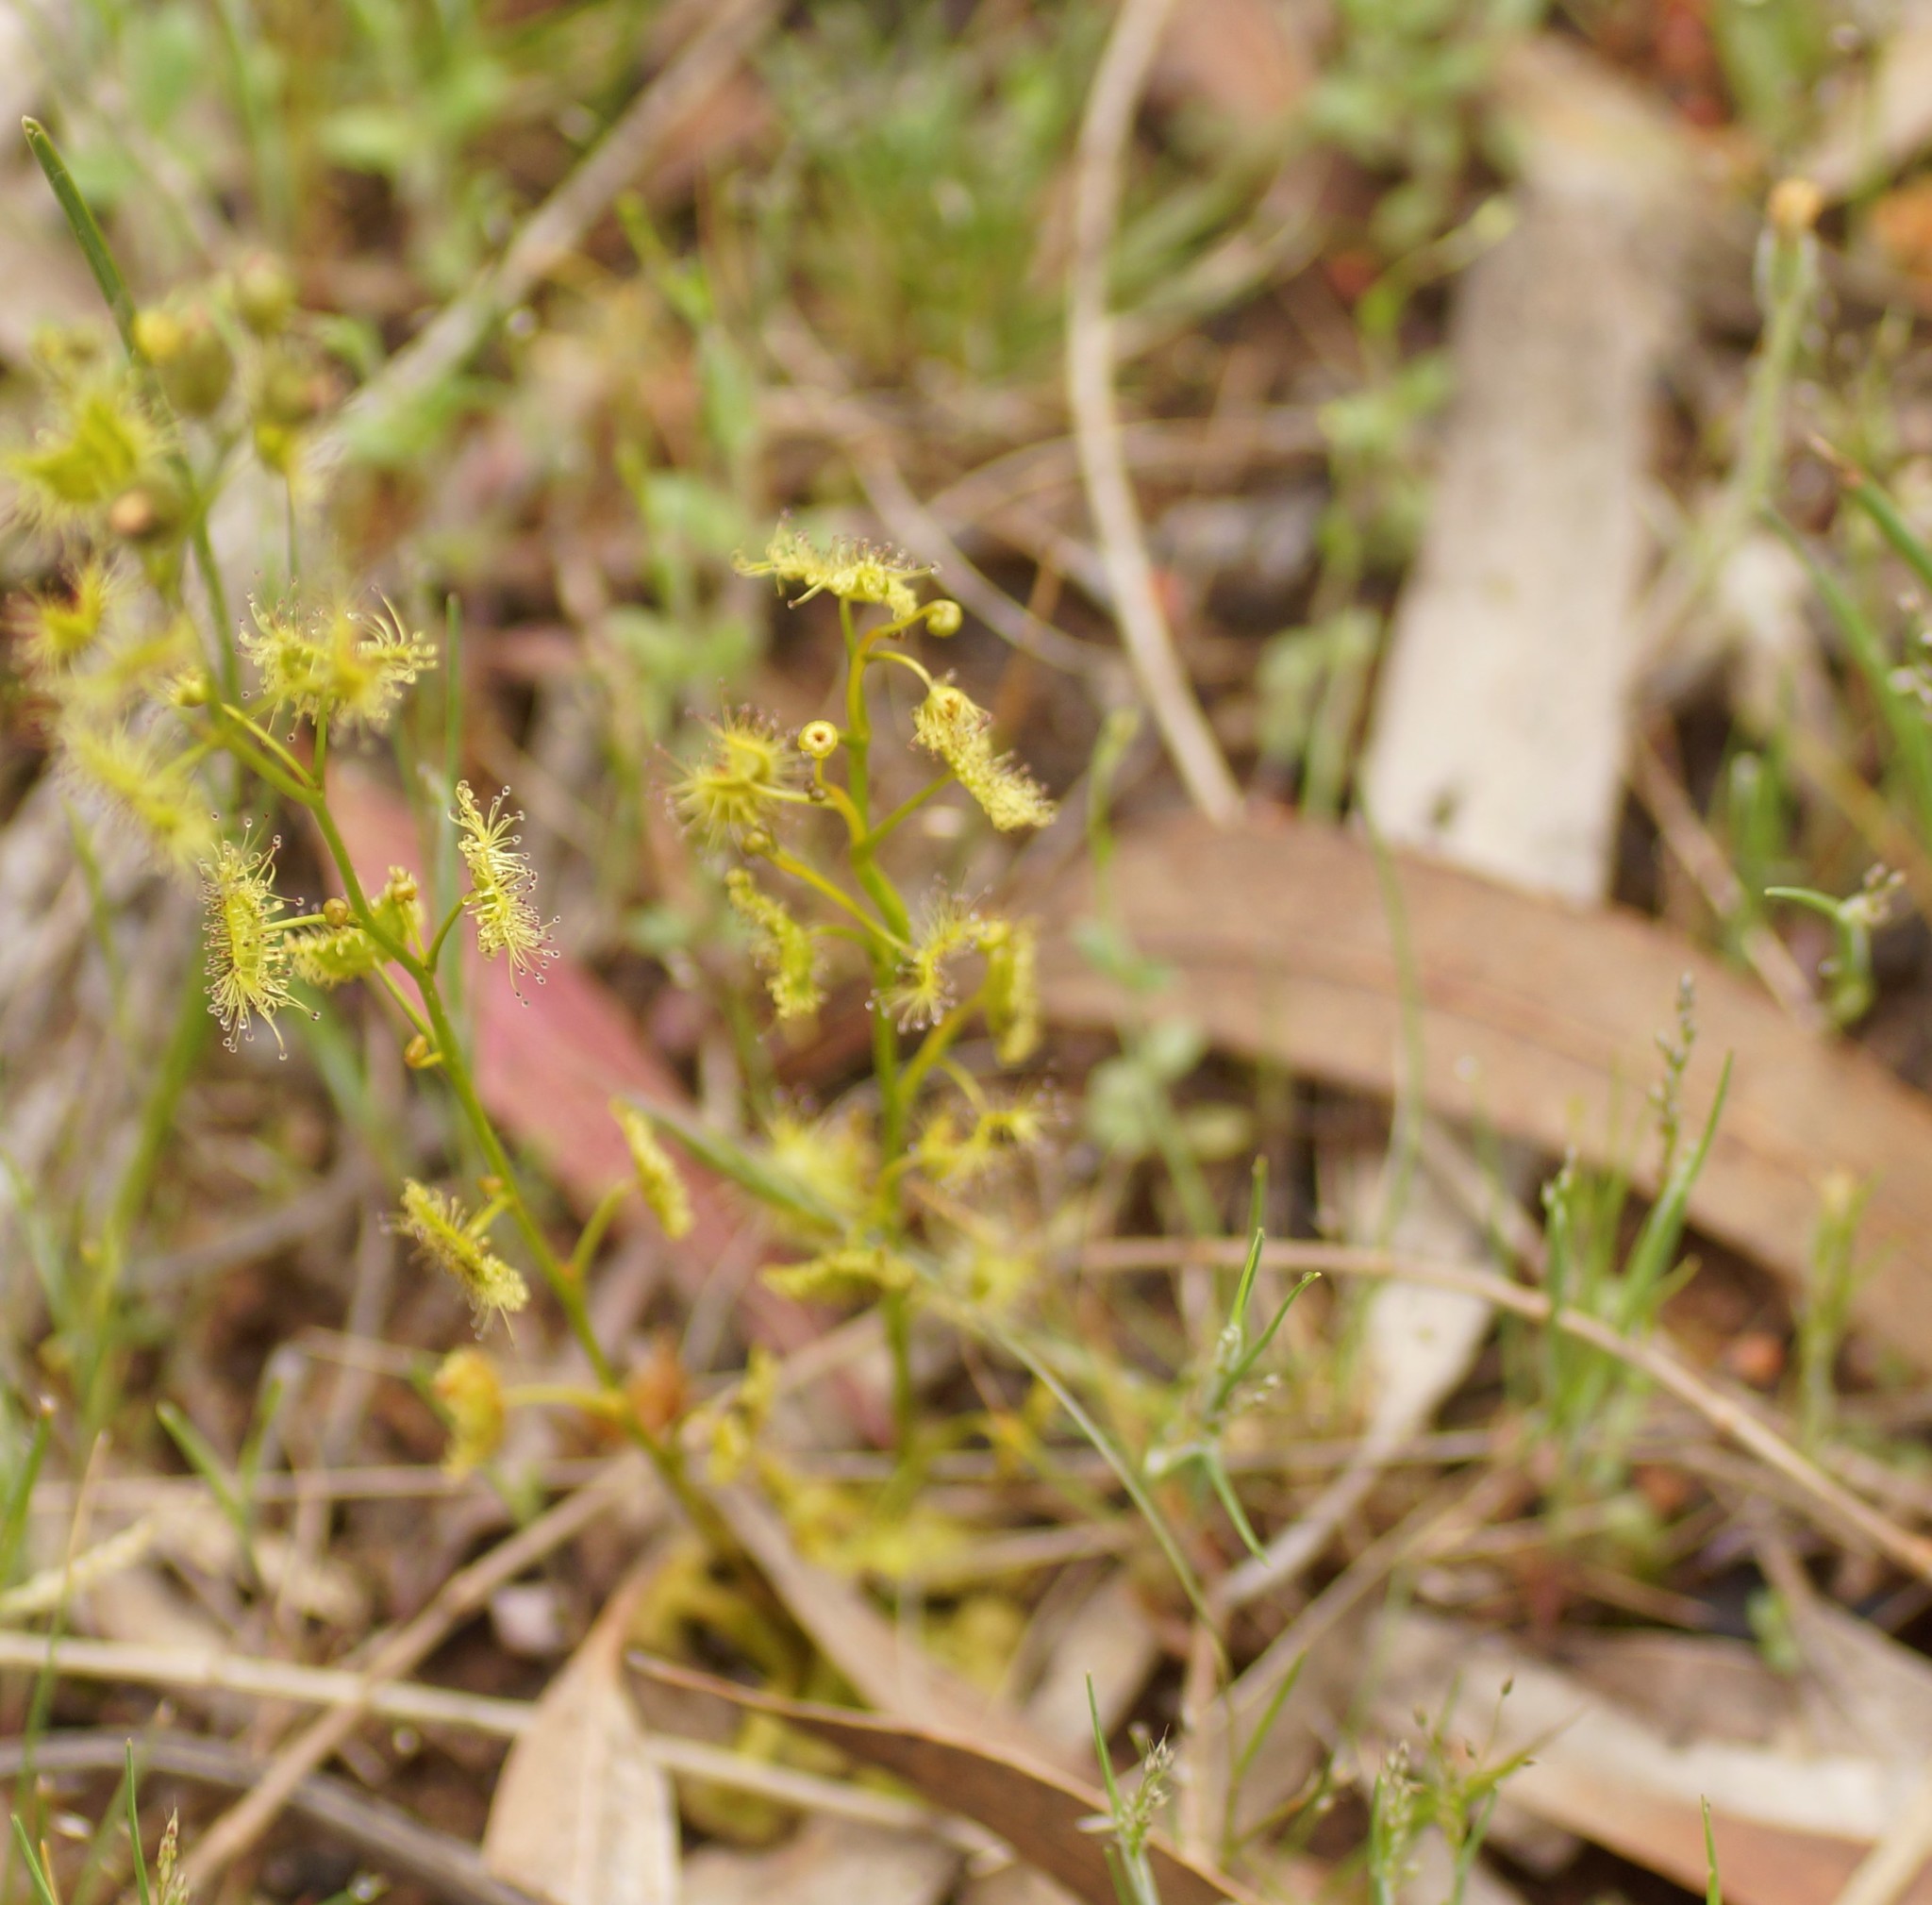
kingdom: Plantae
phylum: Tracheophyta
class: Magnoliopsida
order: Caryophyllales
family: Droseraceae
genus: Drosera
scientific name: Drosera gunniana
